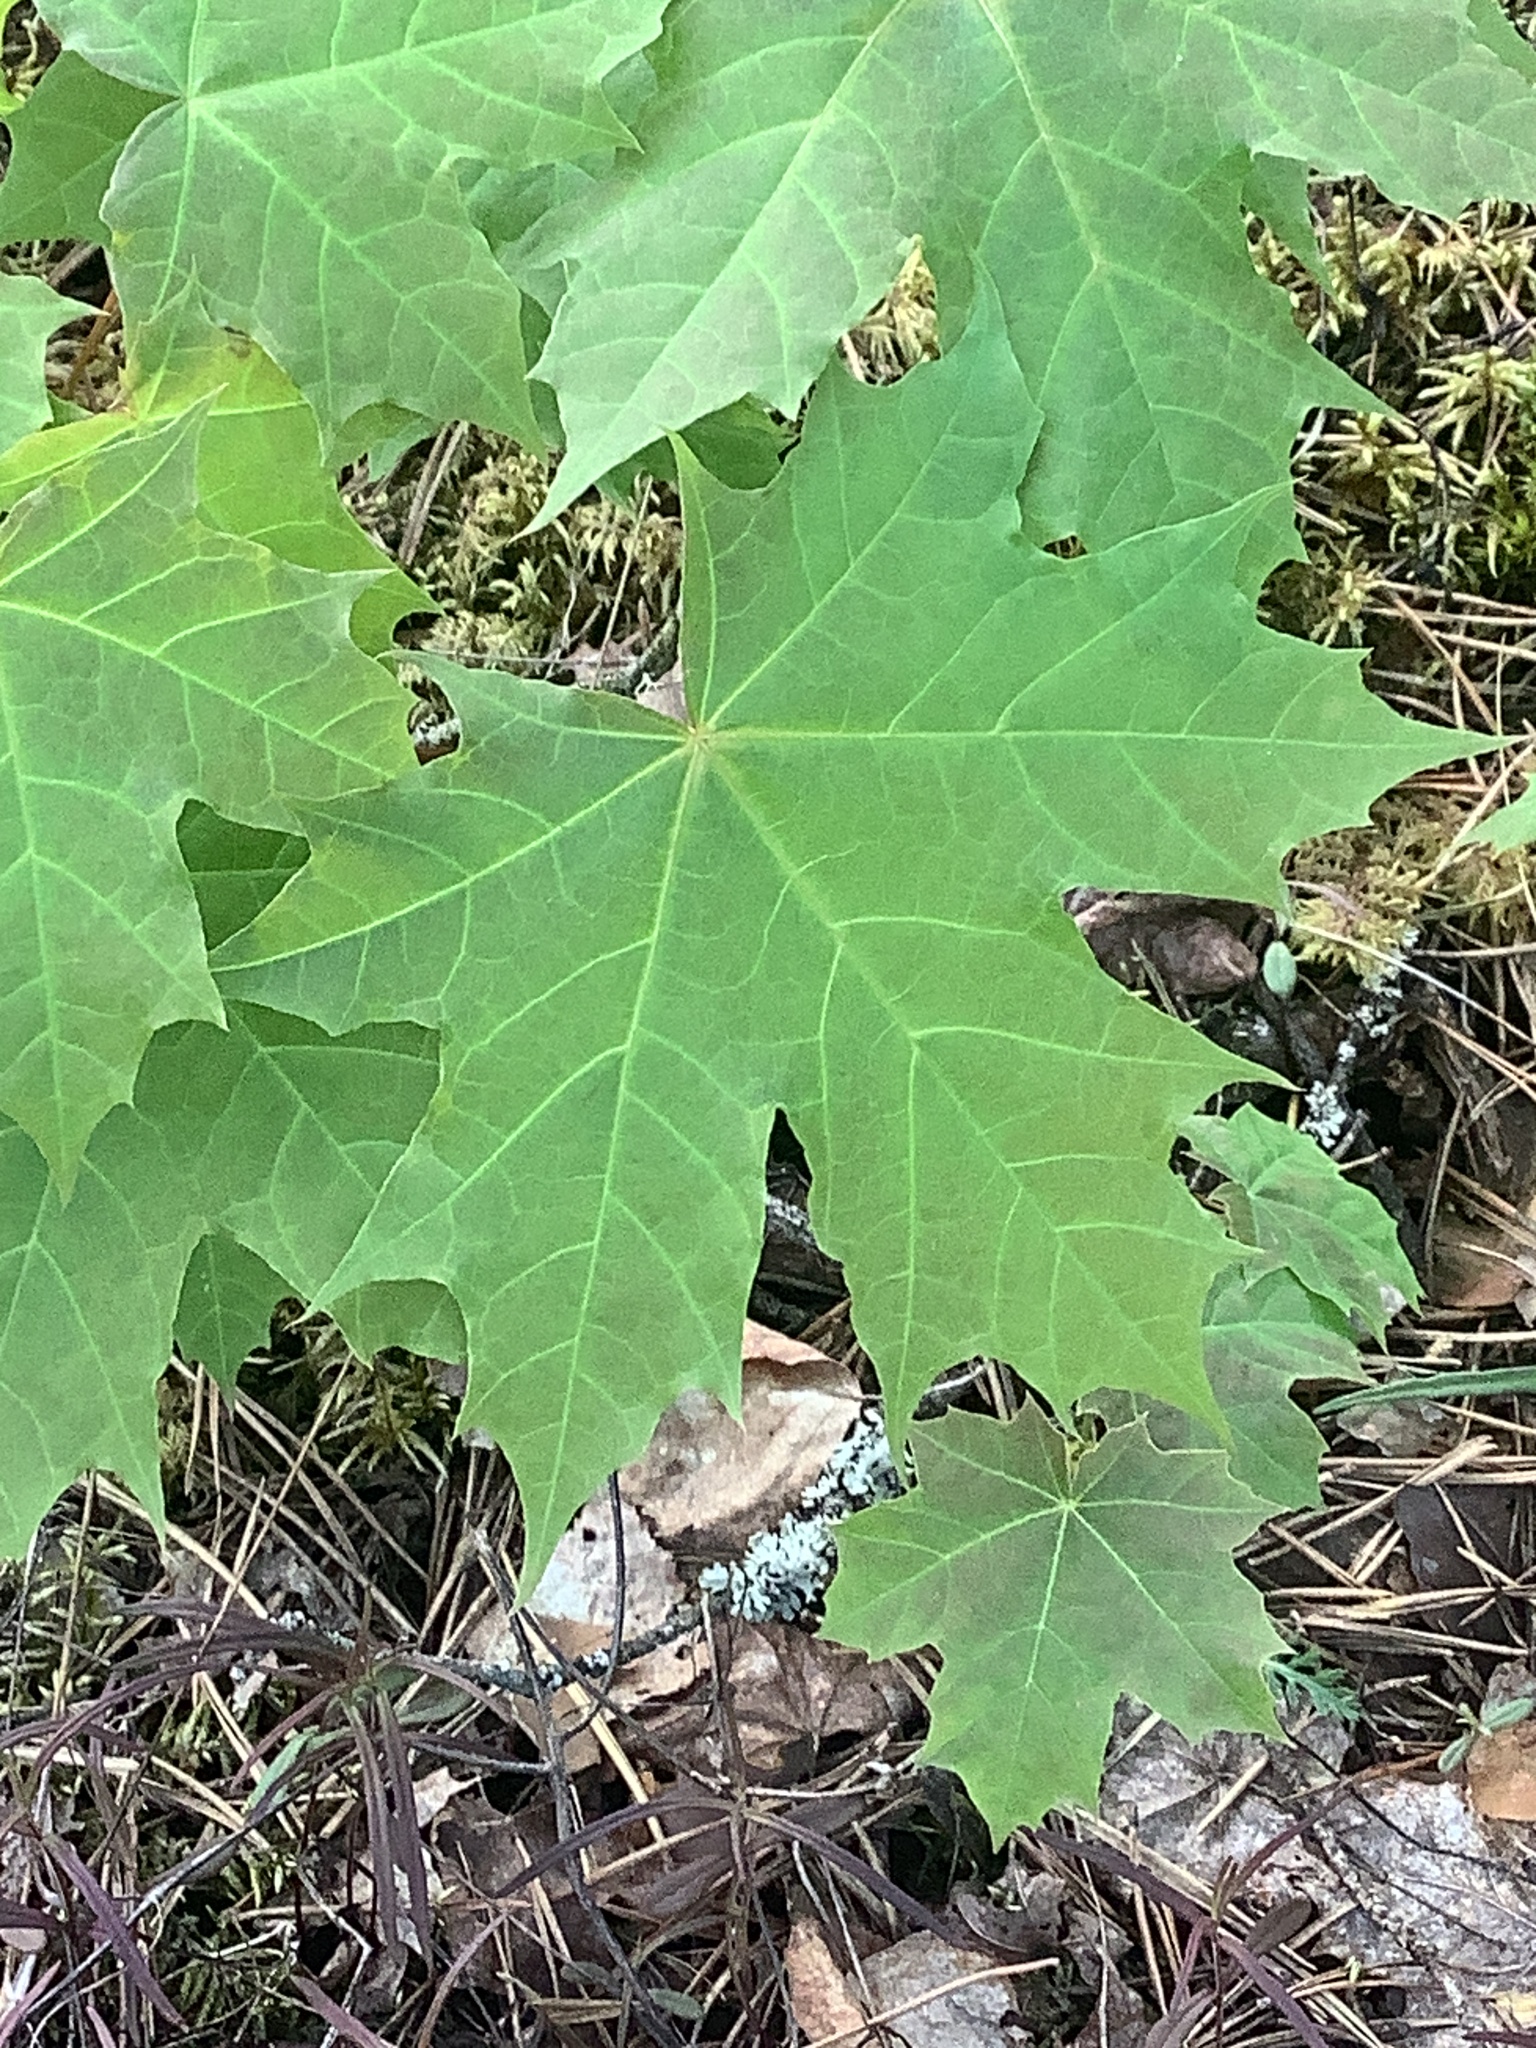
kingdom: Plantae
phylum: Tracheophyta
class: Magnoliopsida
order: Sapindales
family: Sapindaceae
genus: Acer
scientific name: Acer platanoides
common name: Norway maple
